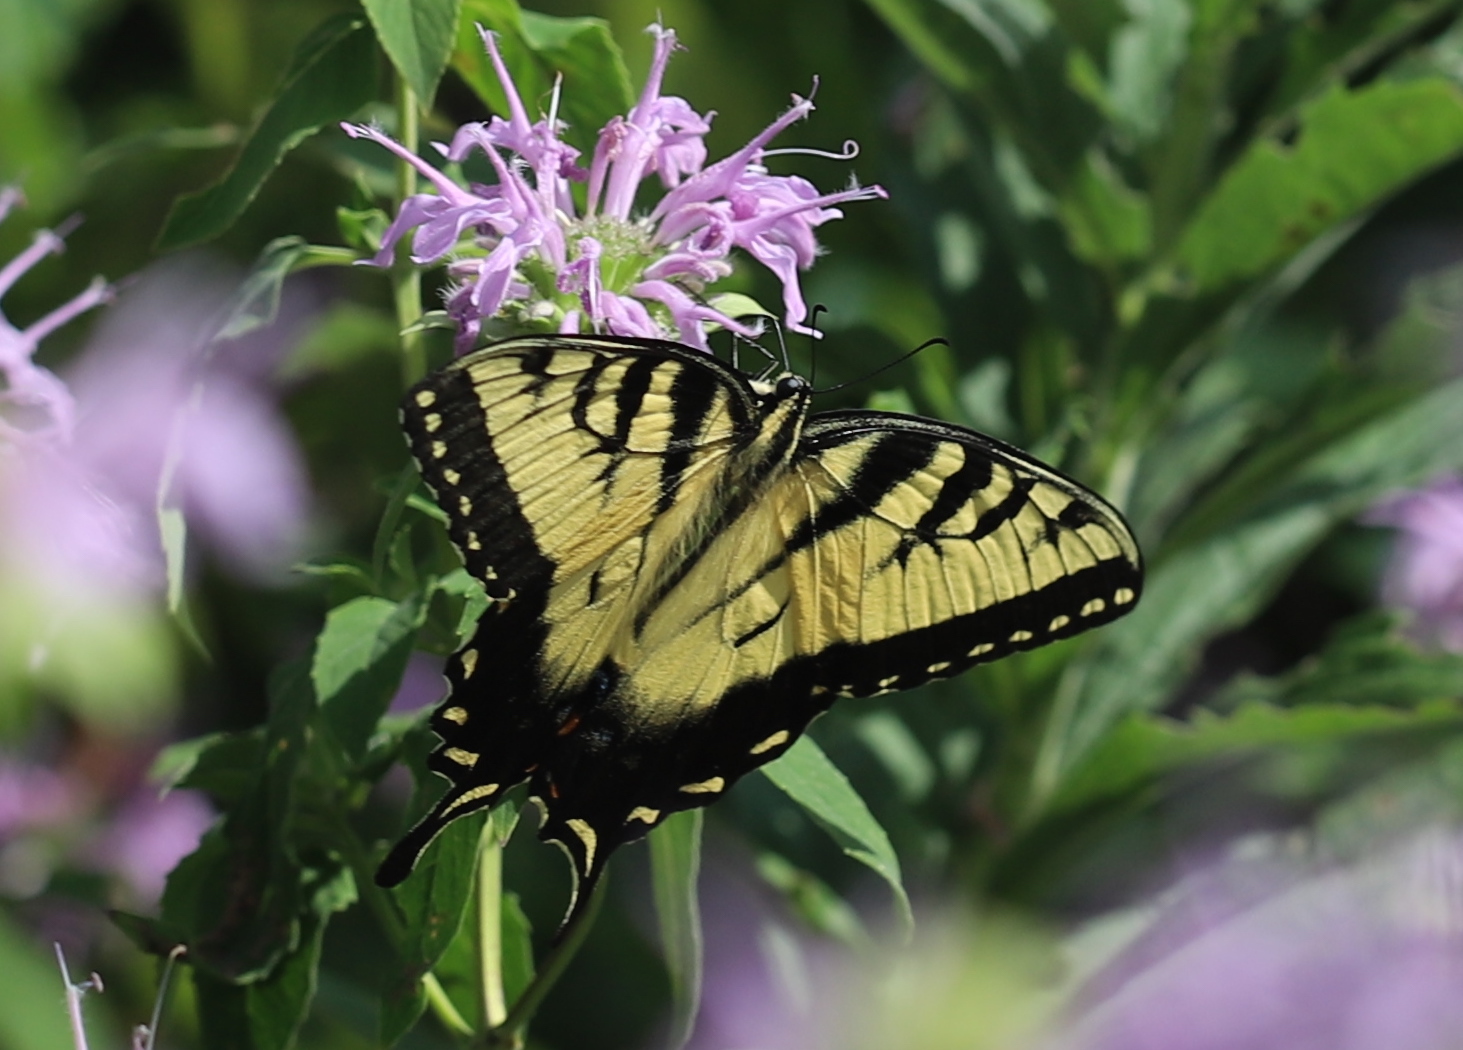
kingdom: Animalia
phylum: Arthropoda
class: Insecta
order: Lepidoptera
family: Papilionidae
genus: Papilio
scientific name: Papilio glaucus
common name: Tiger swallowtail
